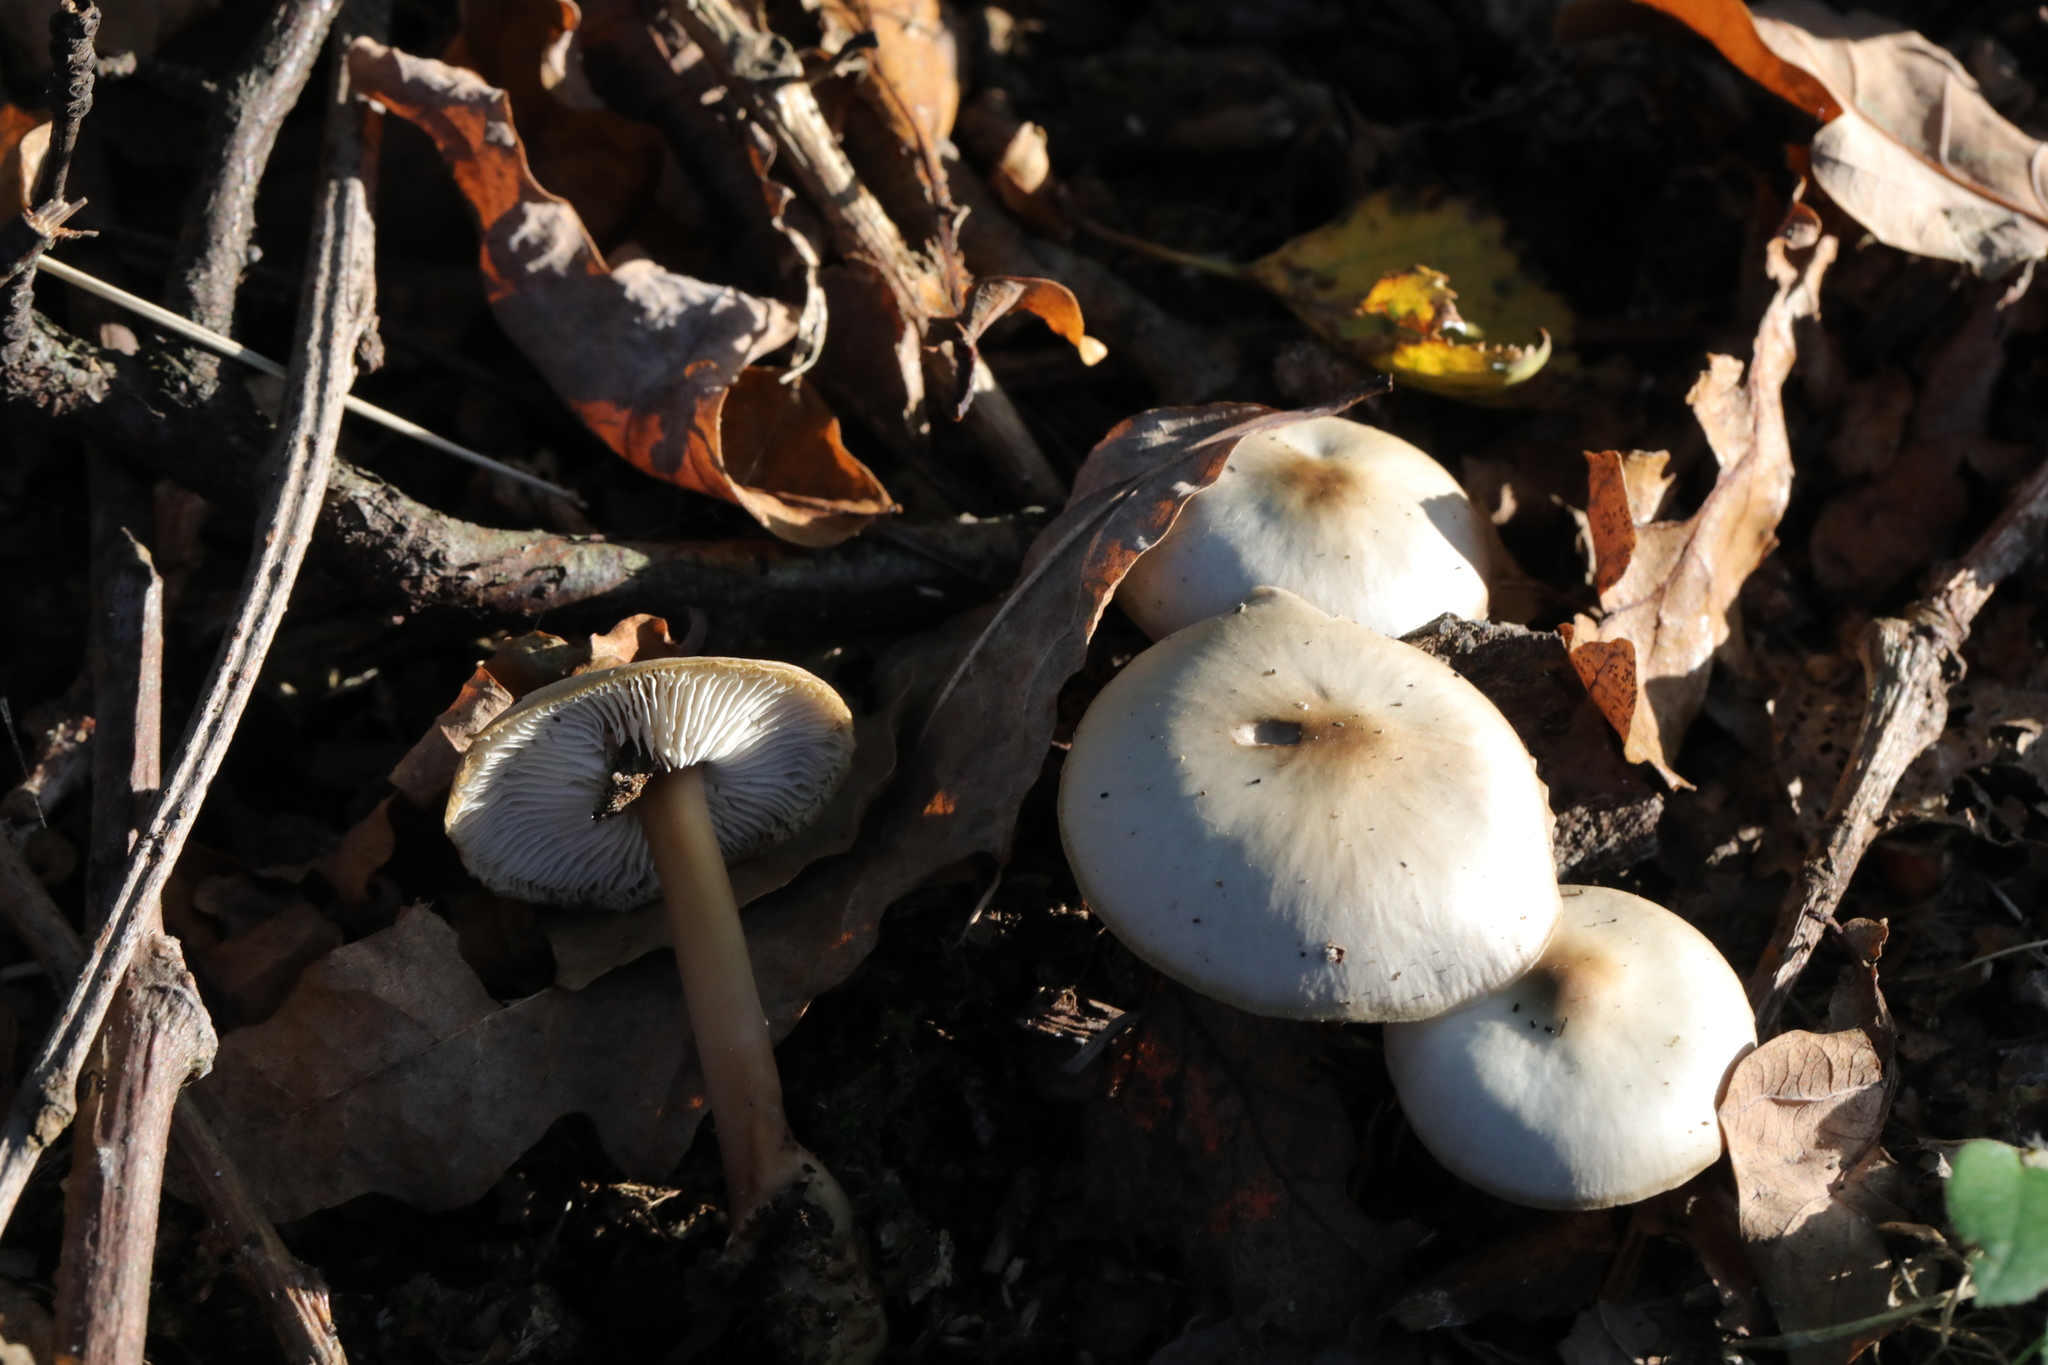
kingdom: Fungi
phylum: Basidiomycota
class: Agaricomycetes
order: Agaricales
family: Omphalotaceae
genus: Rhodocollybia
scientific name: Rhodocollybia asema
